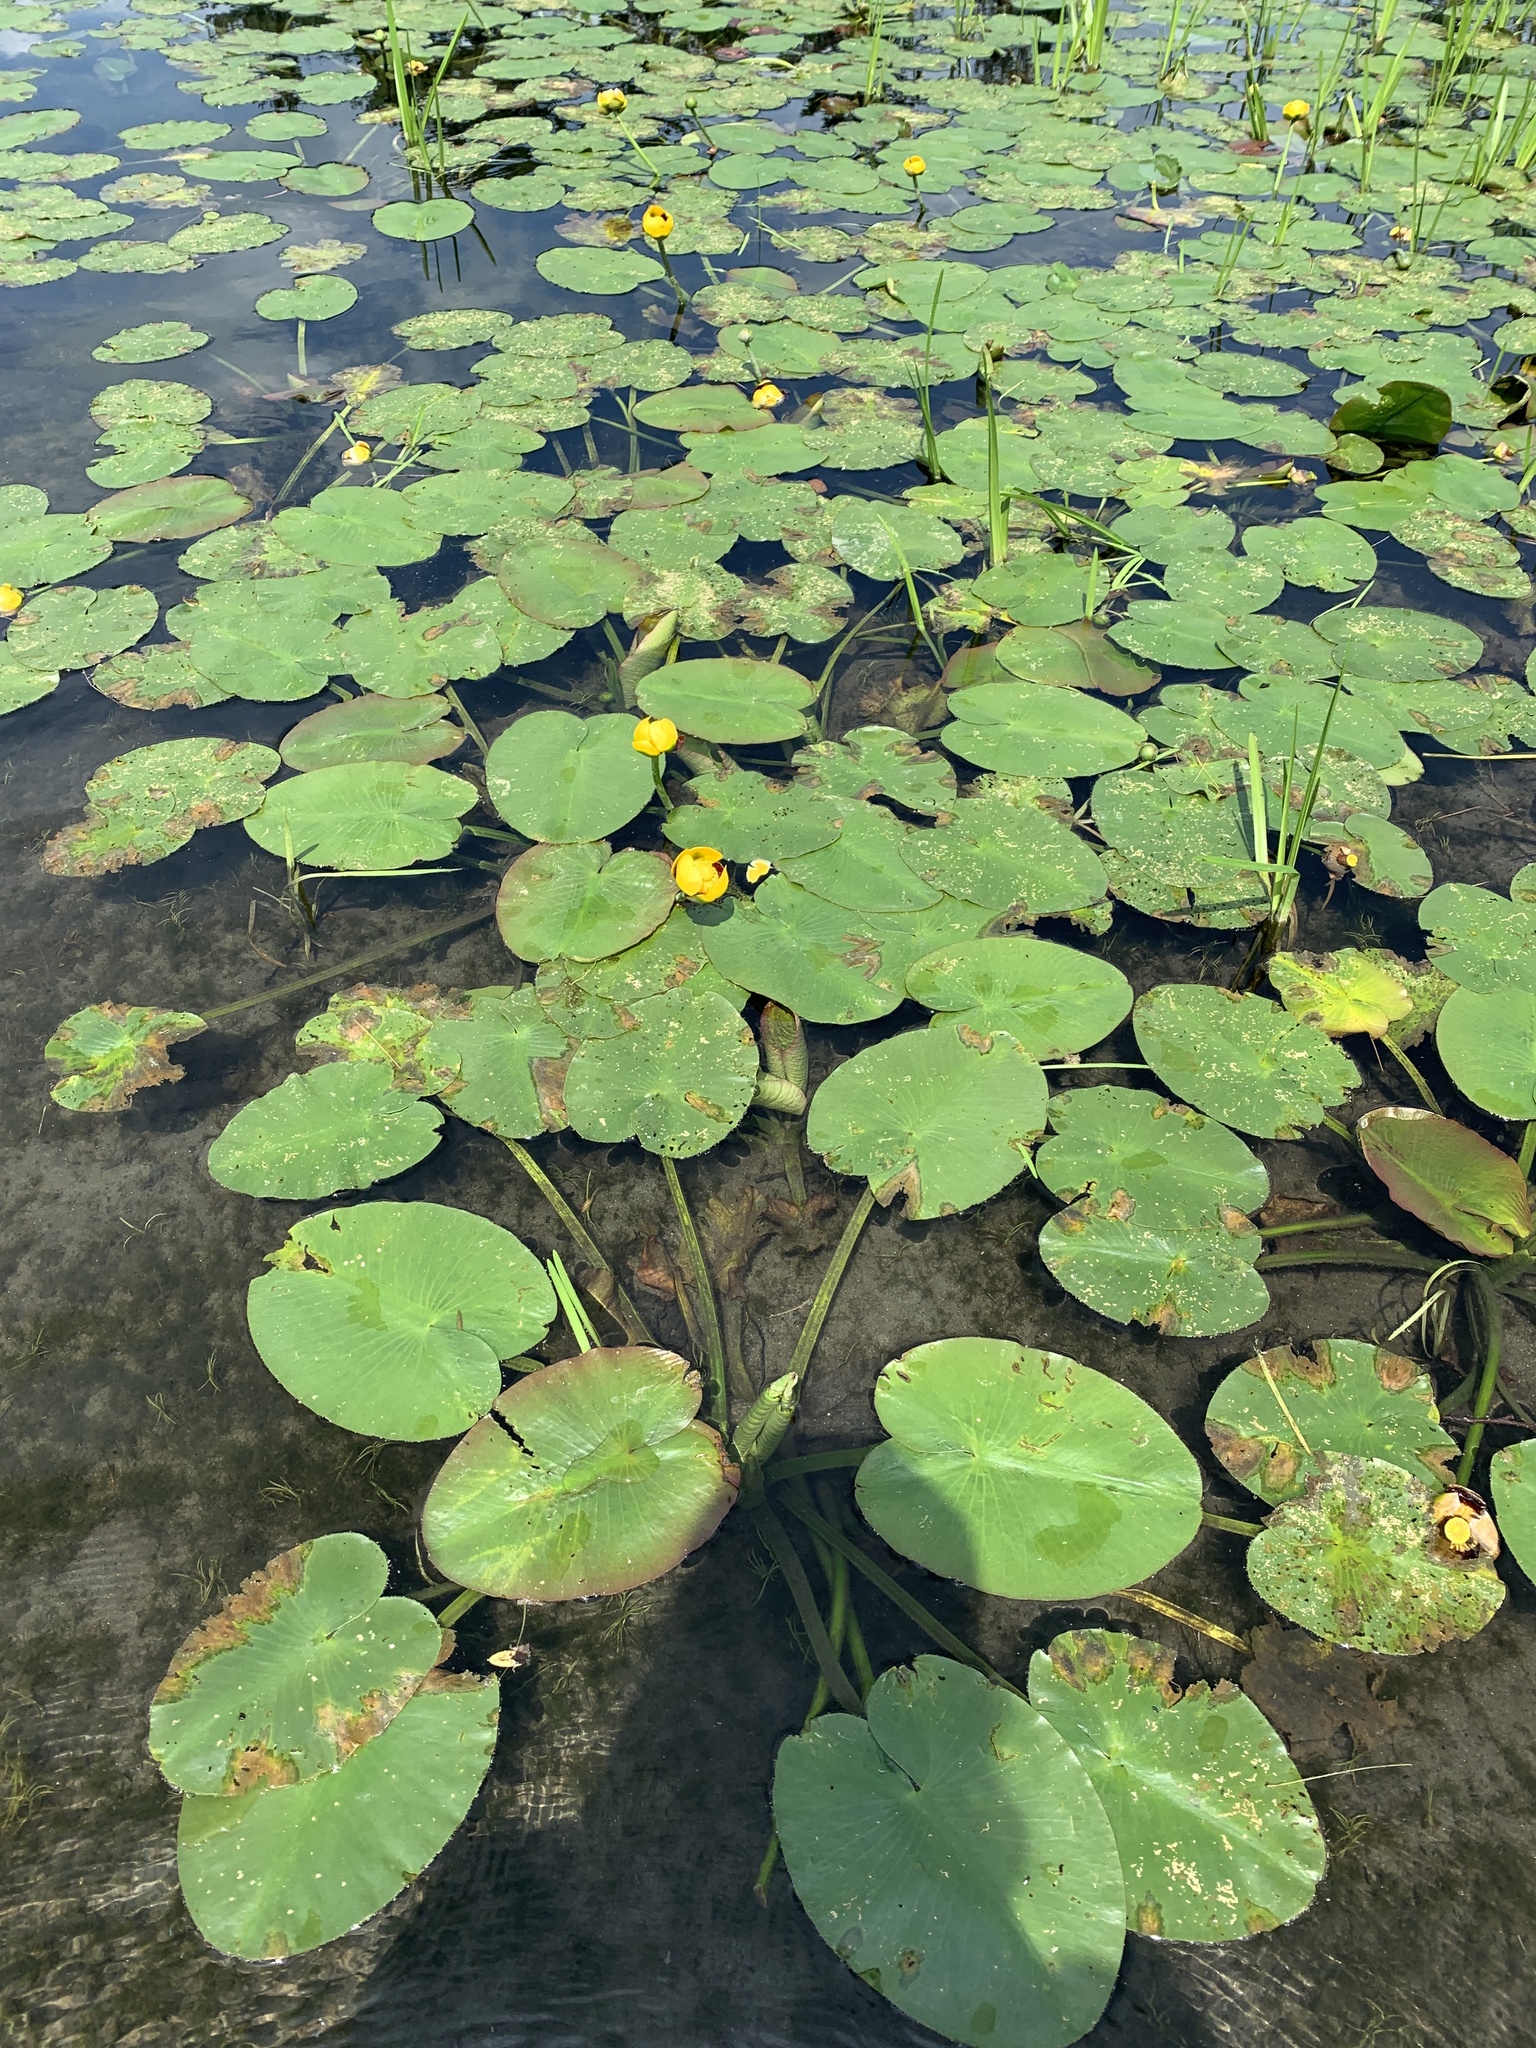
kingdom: Plantae
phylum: Tracheophyta
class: Magnoliopsida
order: Nymphaeales
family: Nymphaeaceae
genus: Nuphar
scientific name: Nuphar variegata
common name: Beaver-root
